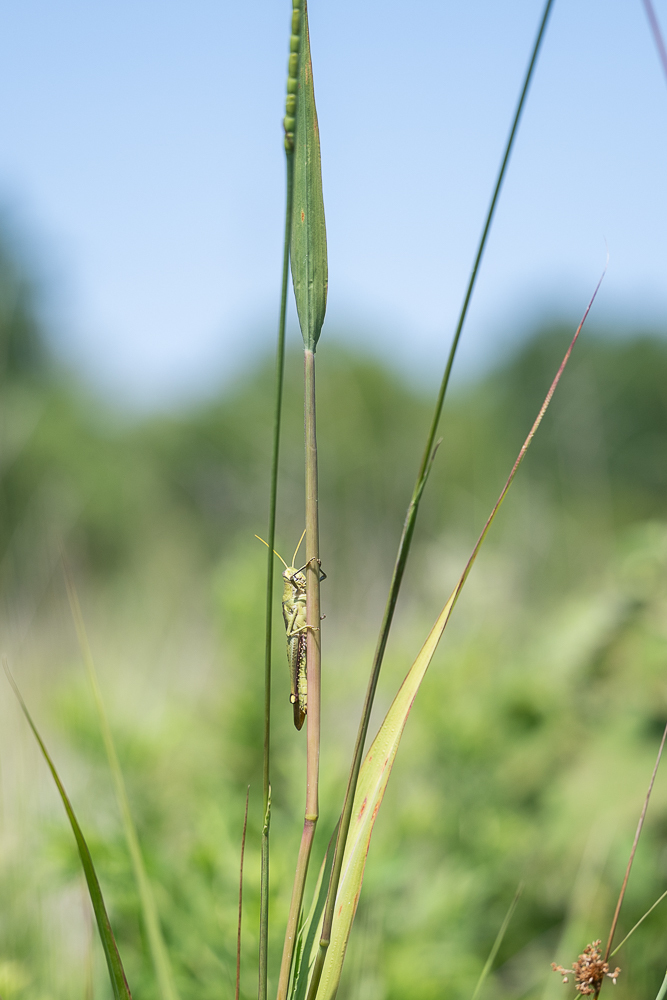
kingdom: Animalia
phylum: Arthropoda
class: Insecta
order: Orthoptera
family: Acrididae
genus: Schistocerca
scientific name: Schistocerca obscura
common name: Obscure bird grasshopper
